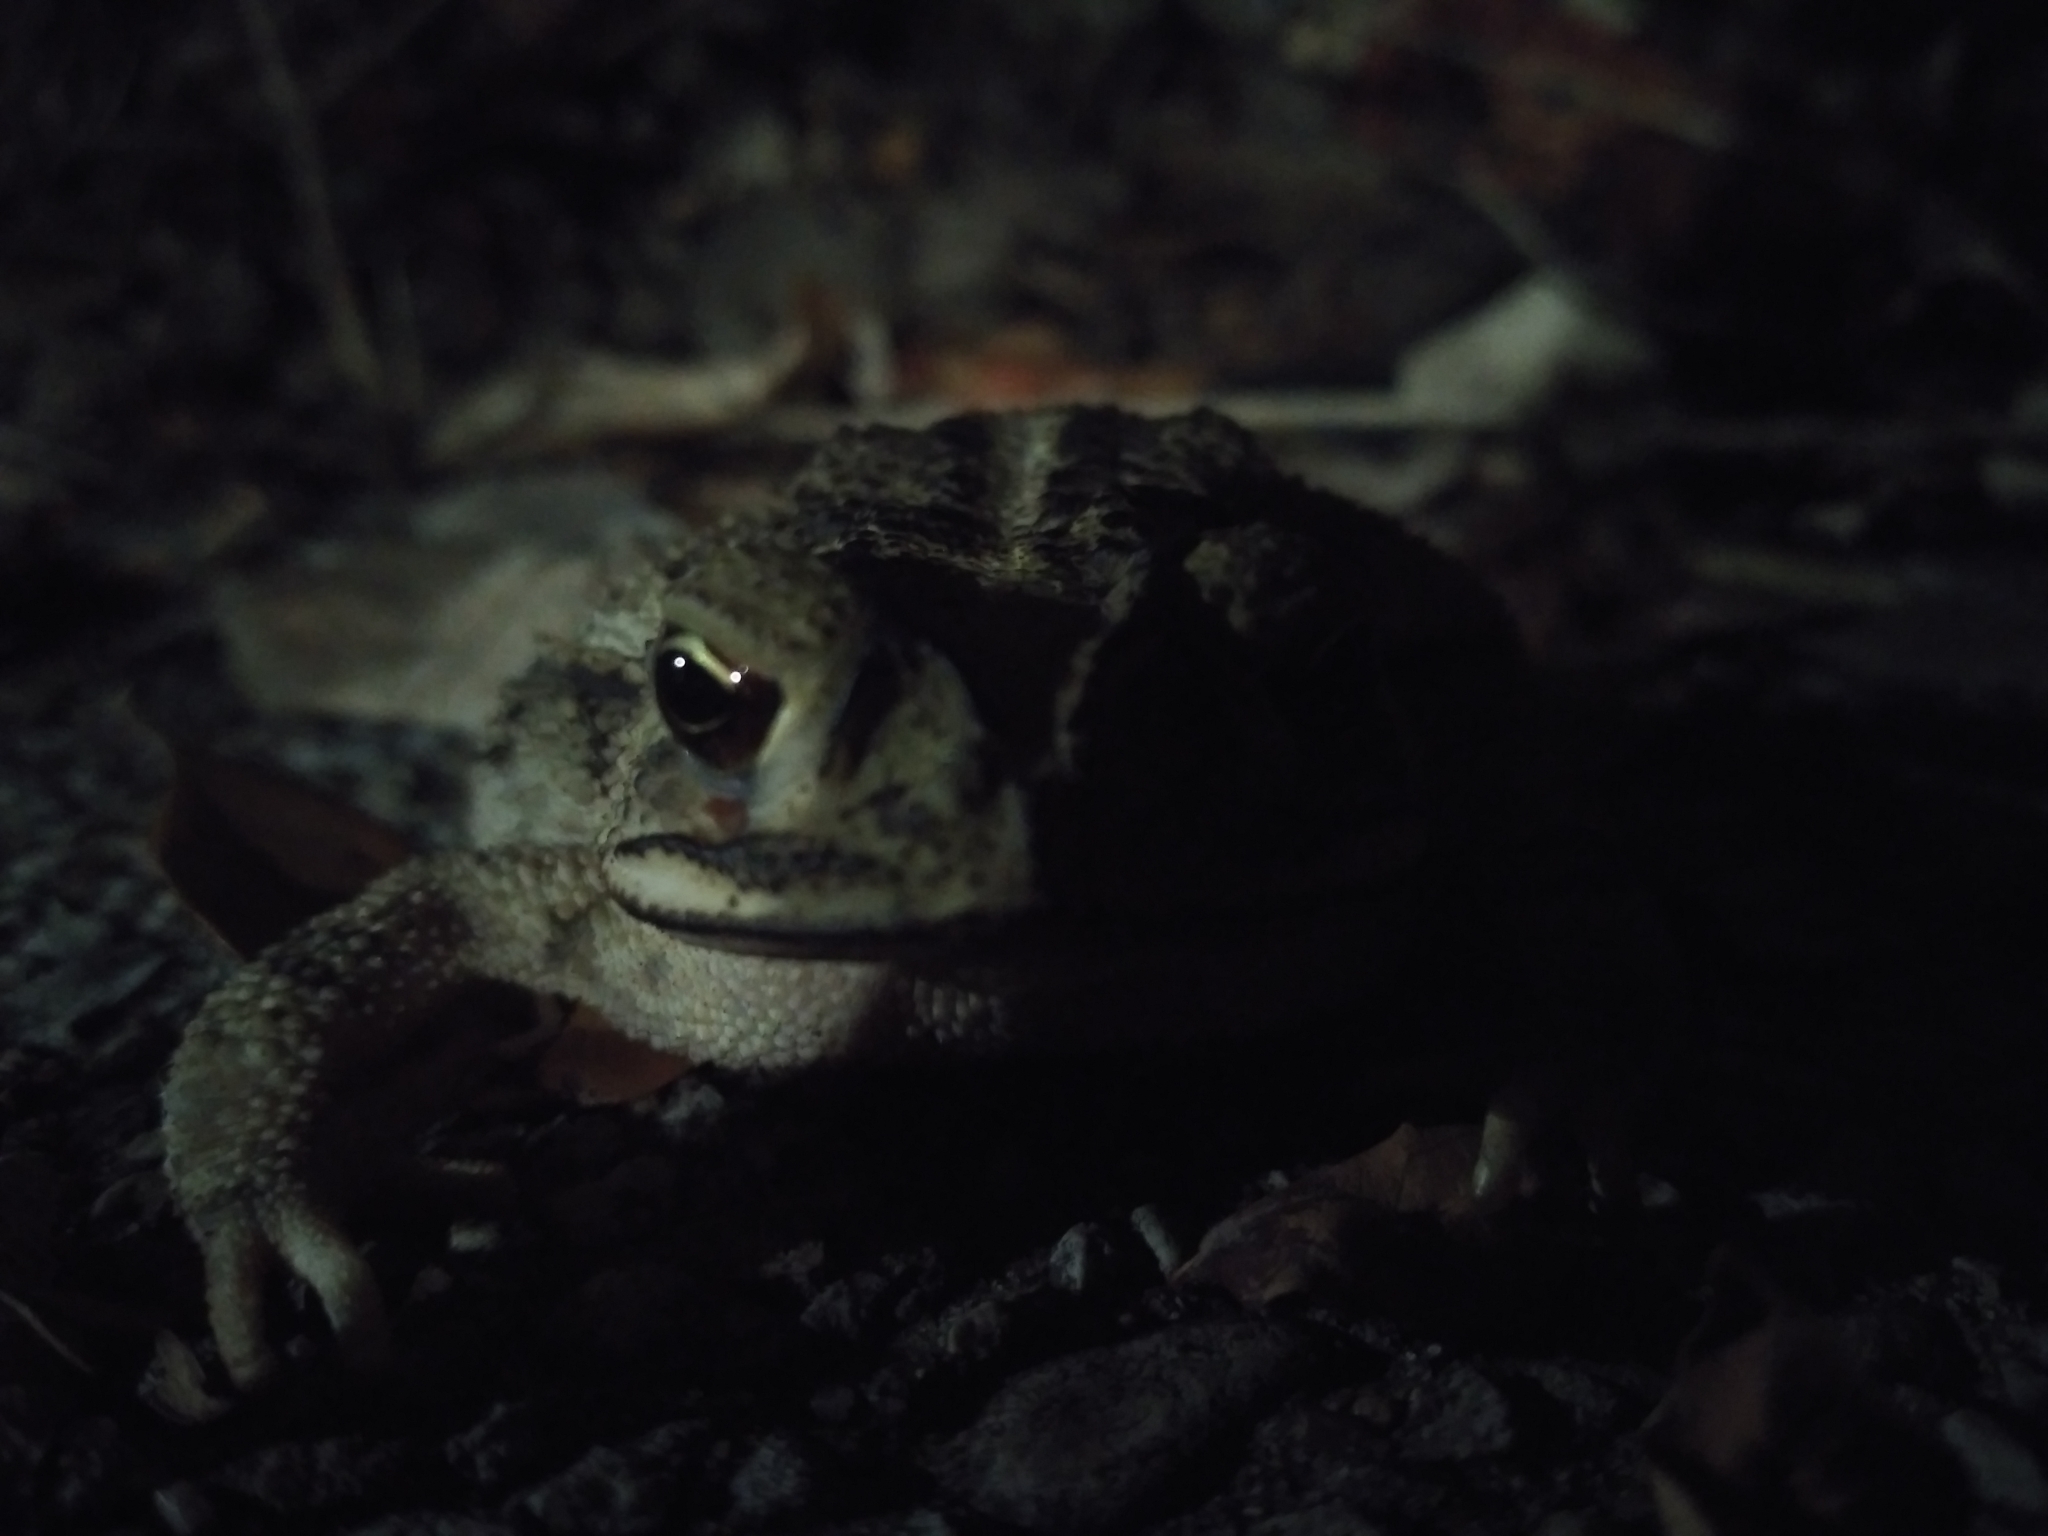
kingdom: Animalia
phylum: Chordata
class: Amphibia
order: Anura
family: Bufonidae
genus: Incilius
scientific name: Incilius nebulifer
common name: Gulf coast toad
